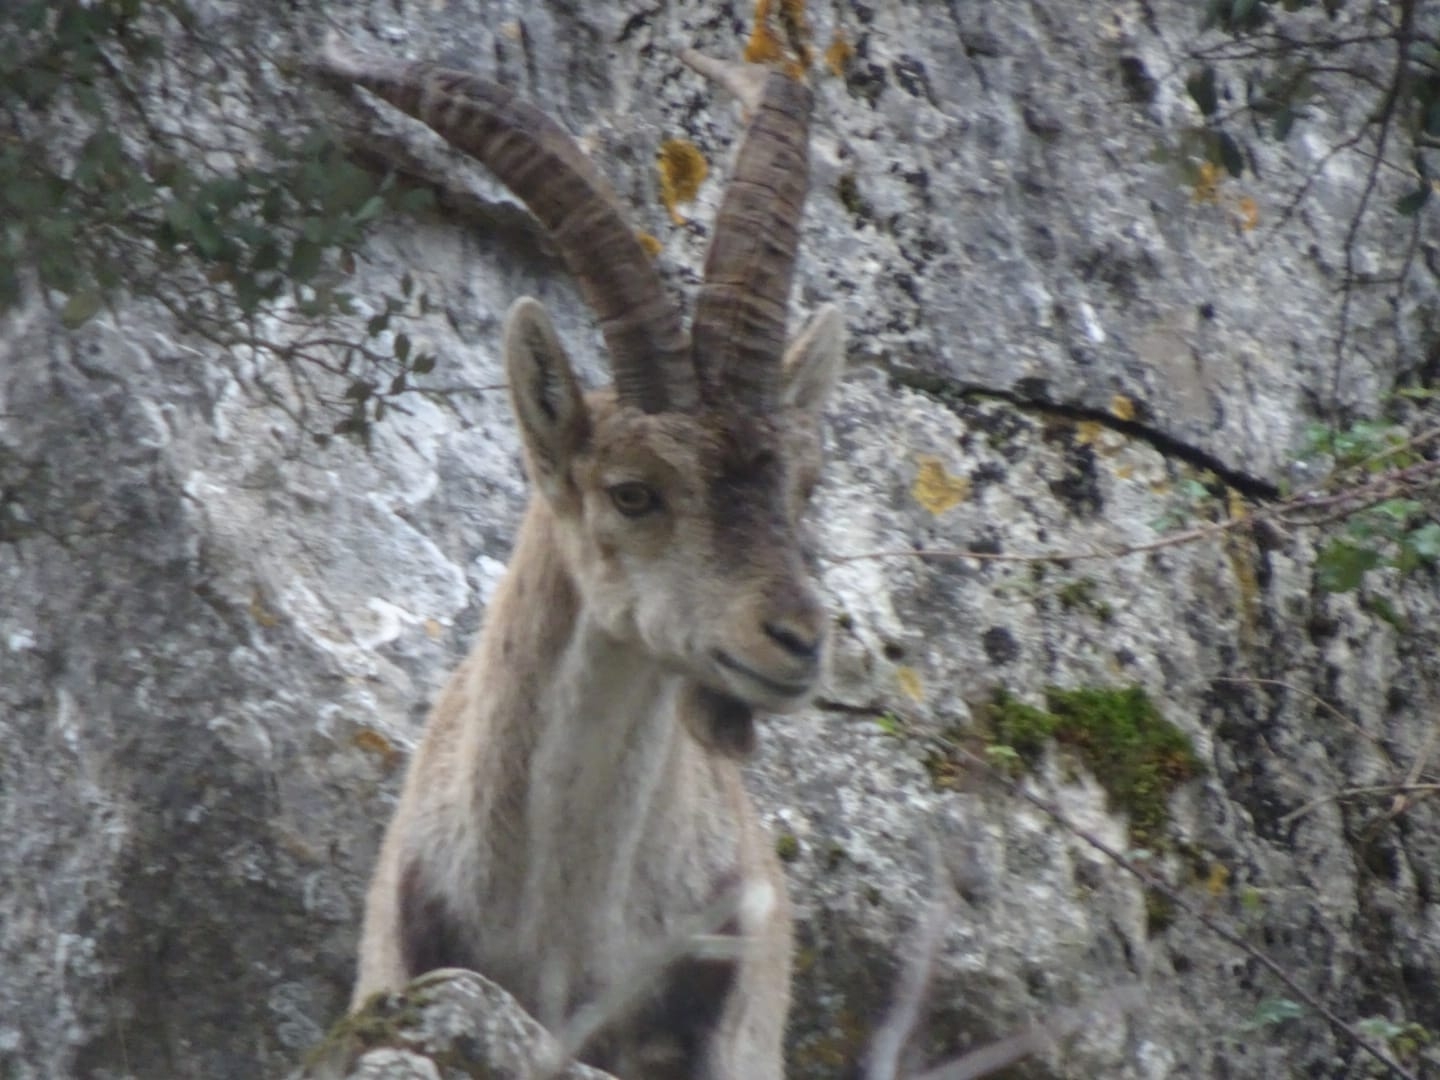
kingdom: Animalia
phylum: Chordata
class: Mammalia
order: Artiodactyla
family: Bovidae
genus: Capra
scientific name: Capra pyrenaica
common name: Spanish ibex
